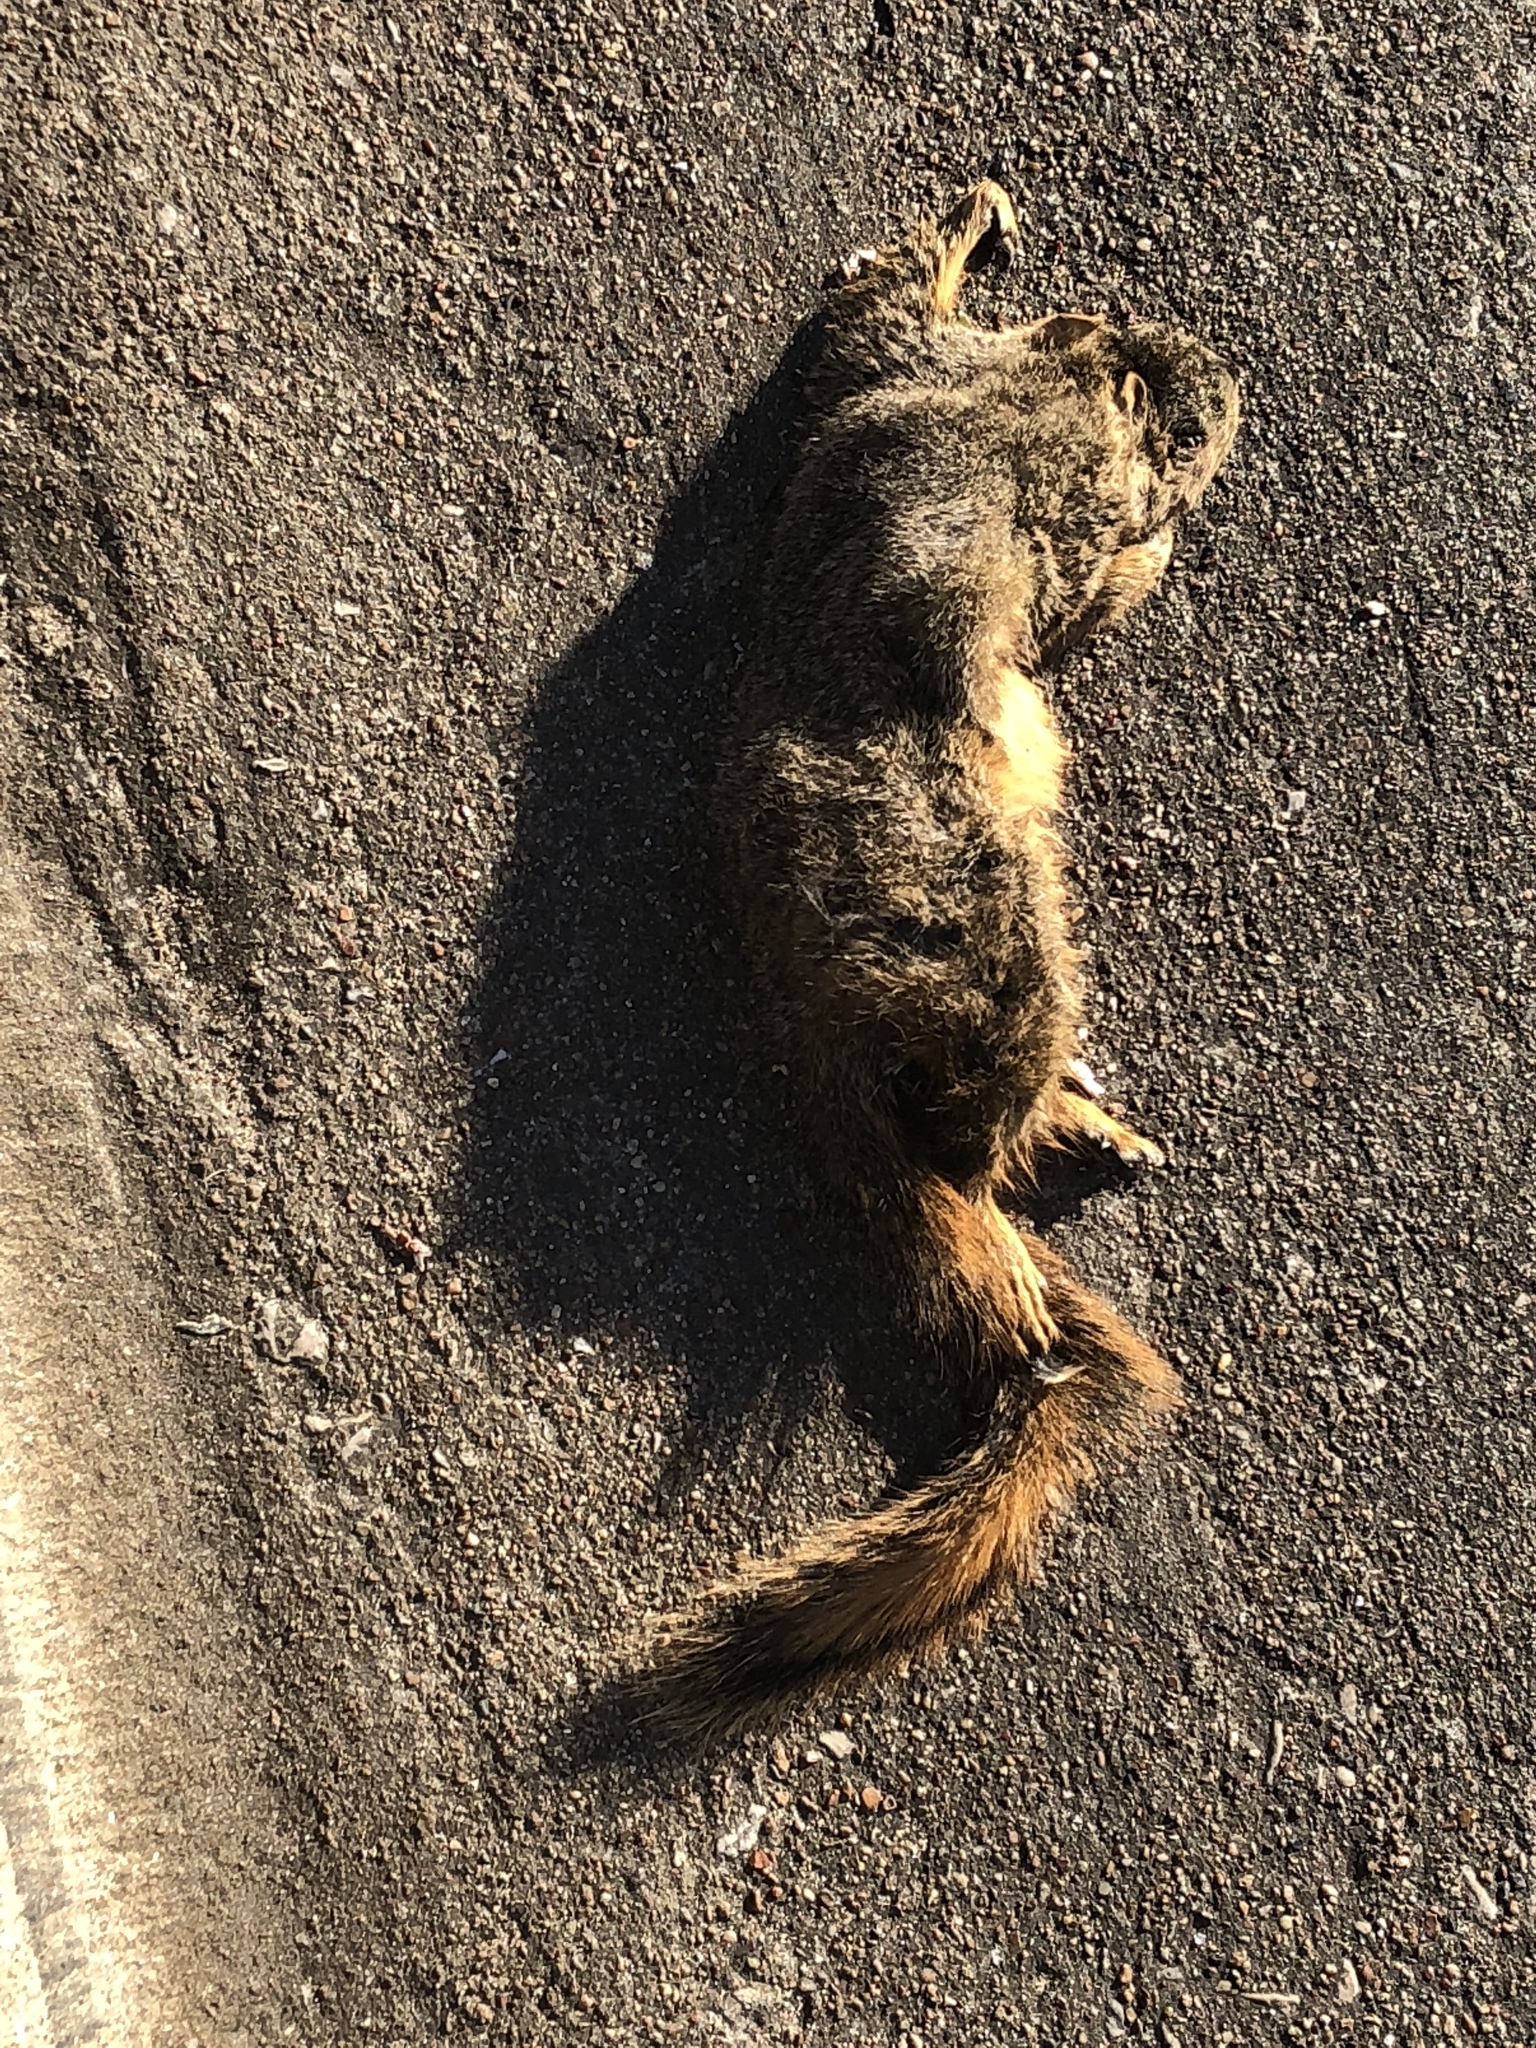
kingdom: Animalia
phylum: Chordata
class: Mammalia
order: Rodentia
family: Sciuridae
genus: Sciurus
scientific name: Sciurus niger
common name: Fox squirrel
